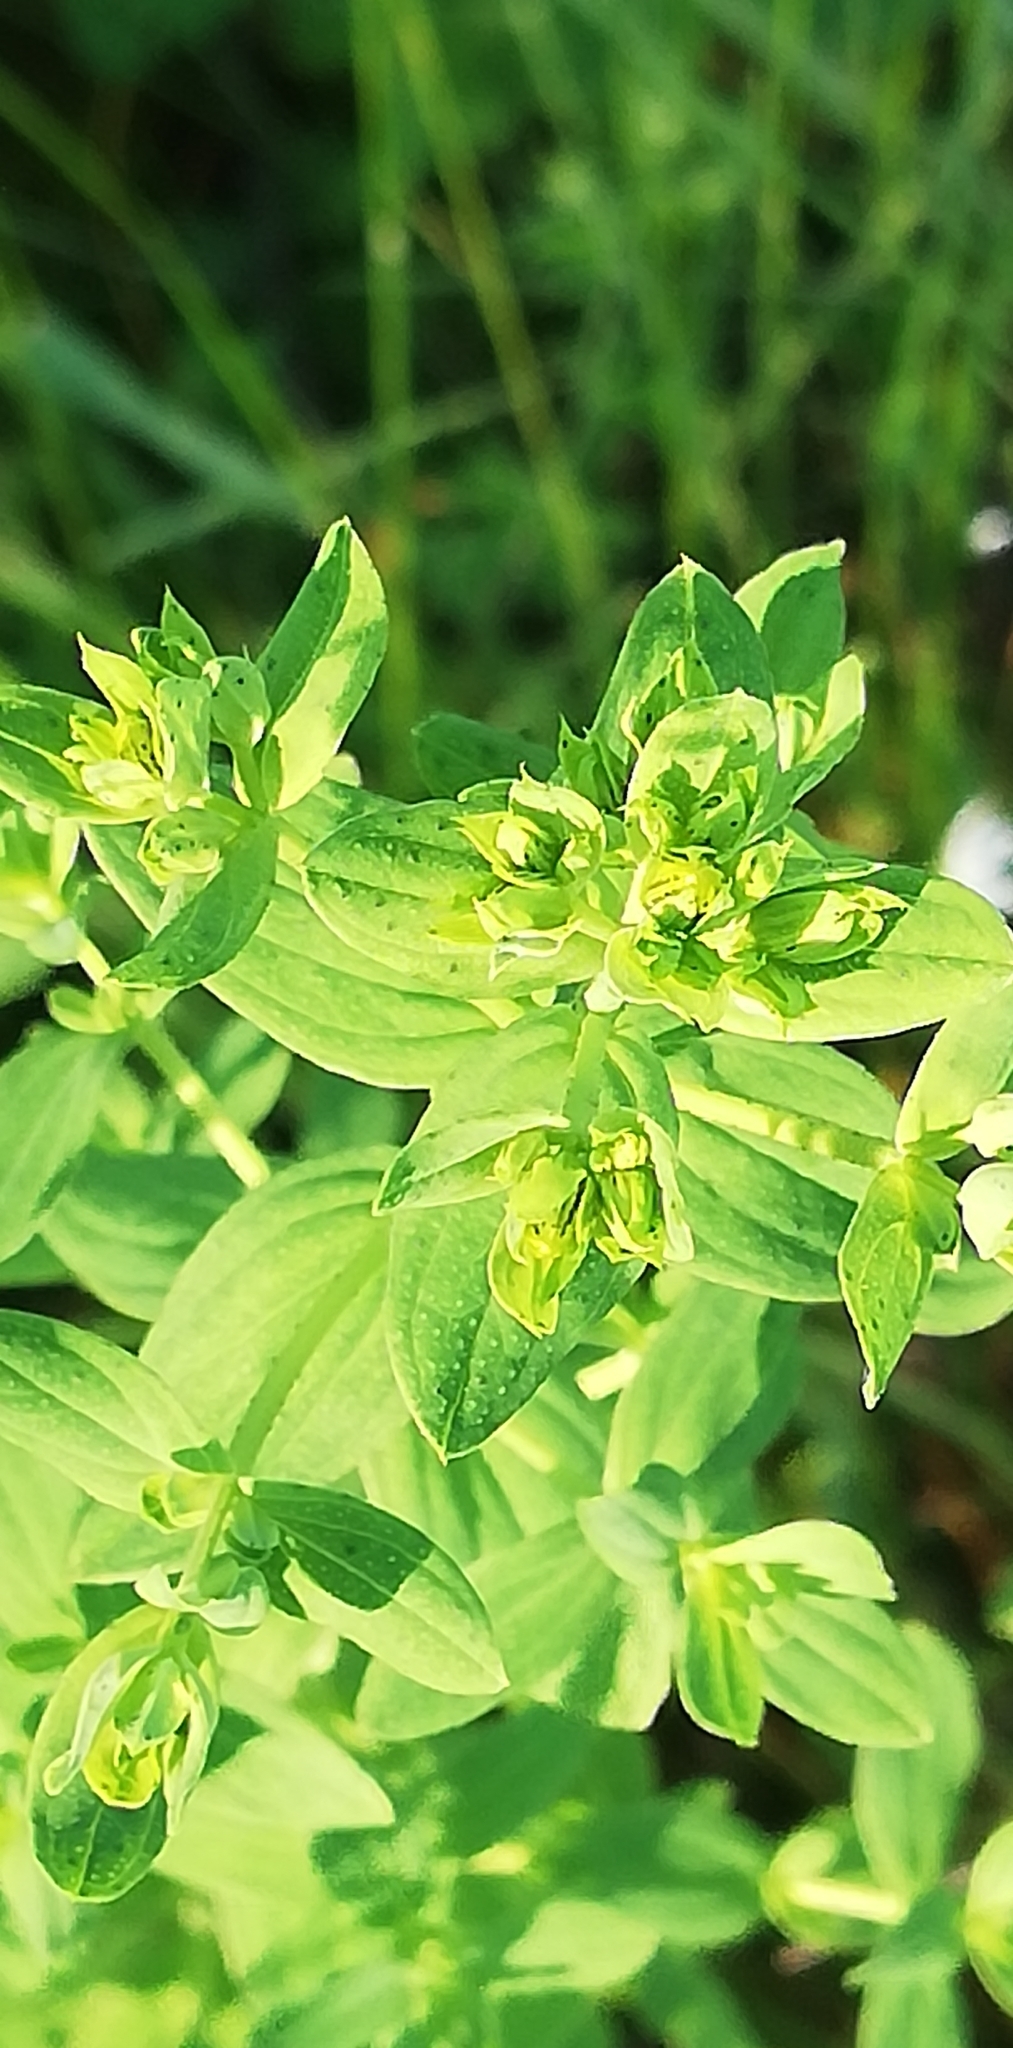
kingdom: Plantae
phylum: Tracheophyta
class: Magnoliopsida
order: Malpighiales
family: Hypericaceae
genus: Hypericum
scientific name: Hypericum perforatum
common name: Common st. johnswort
